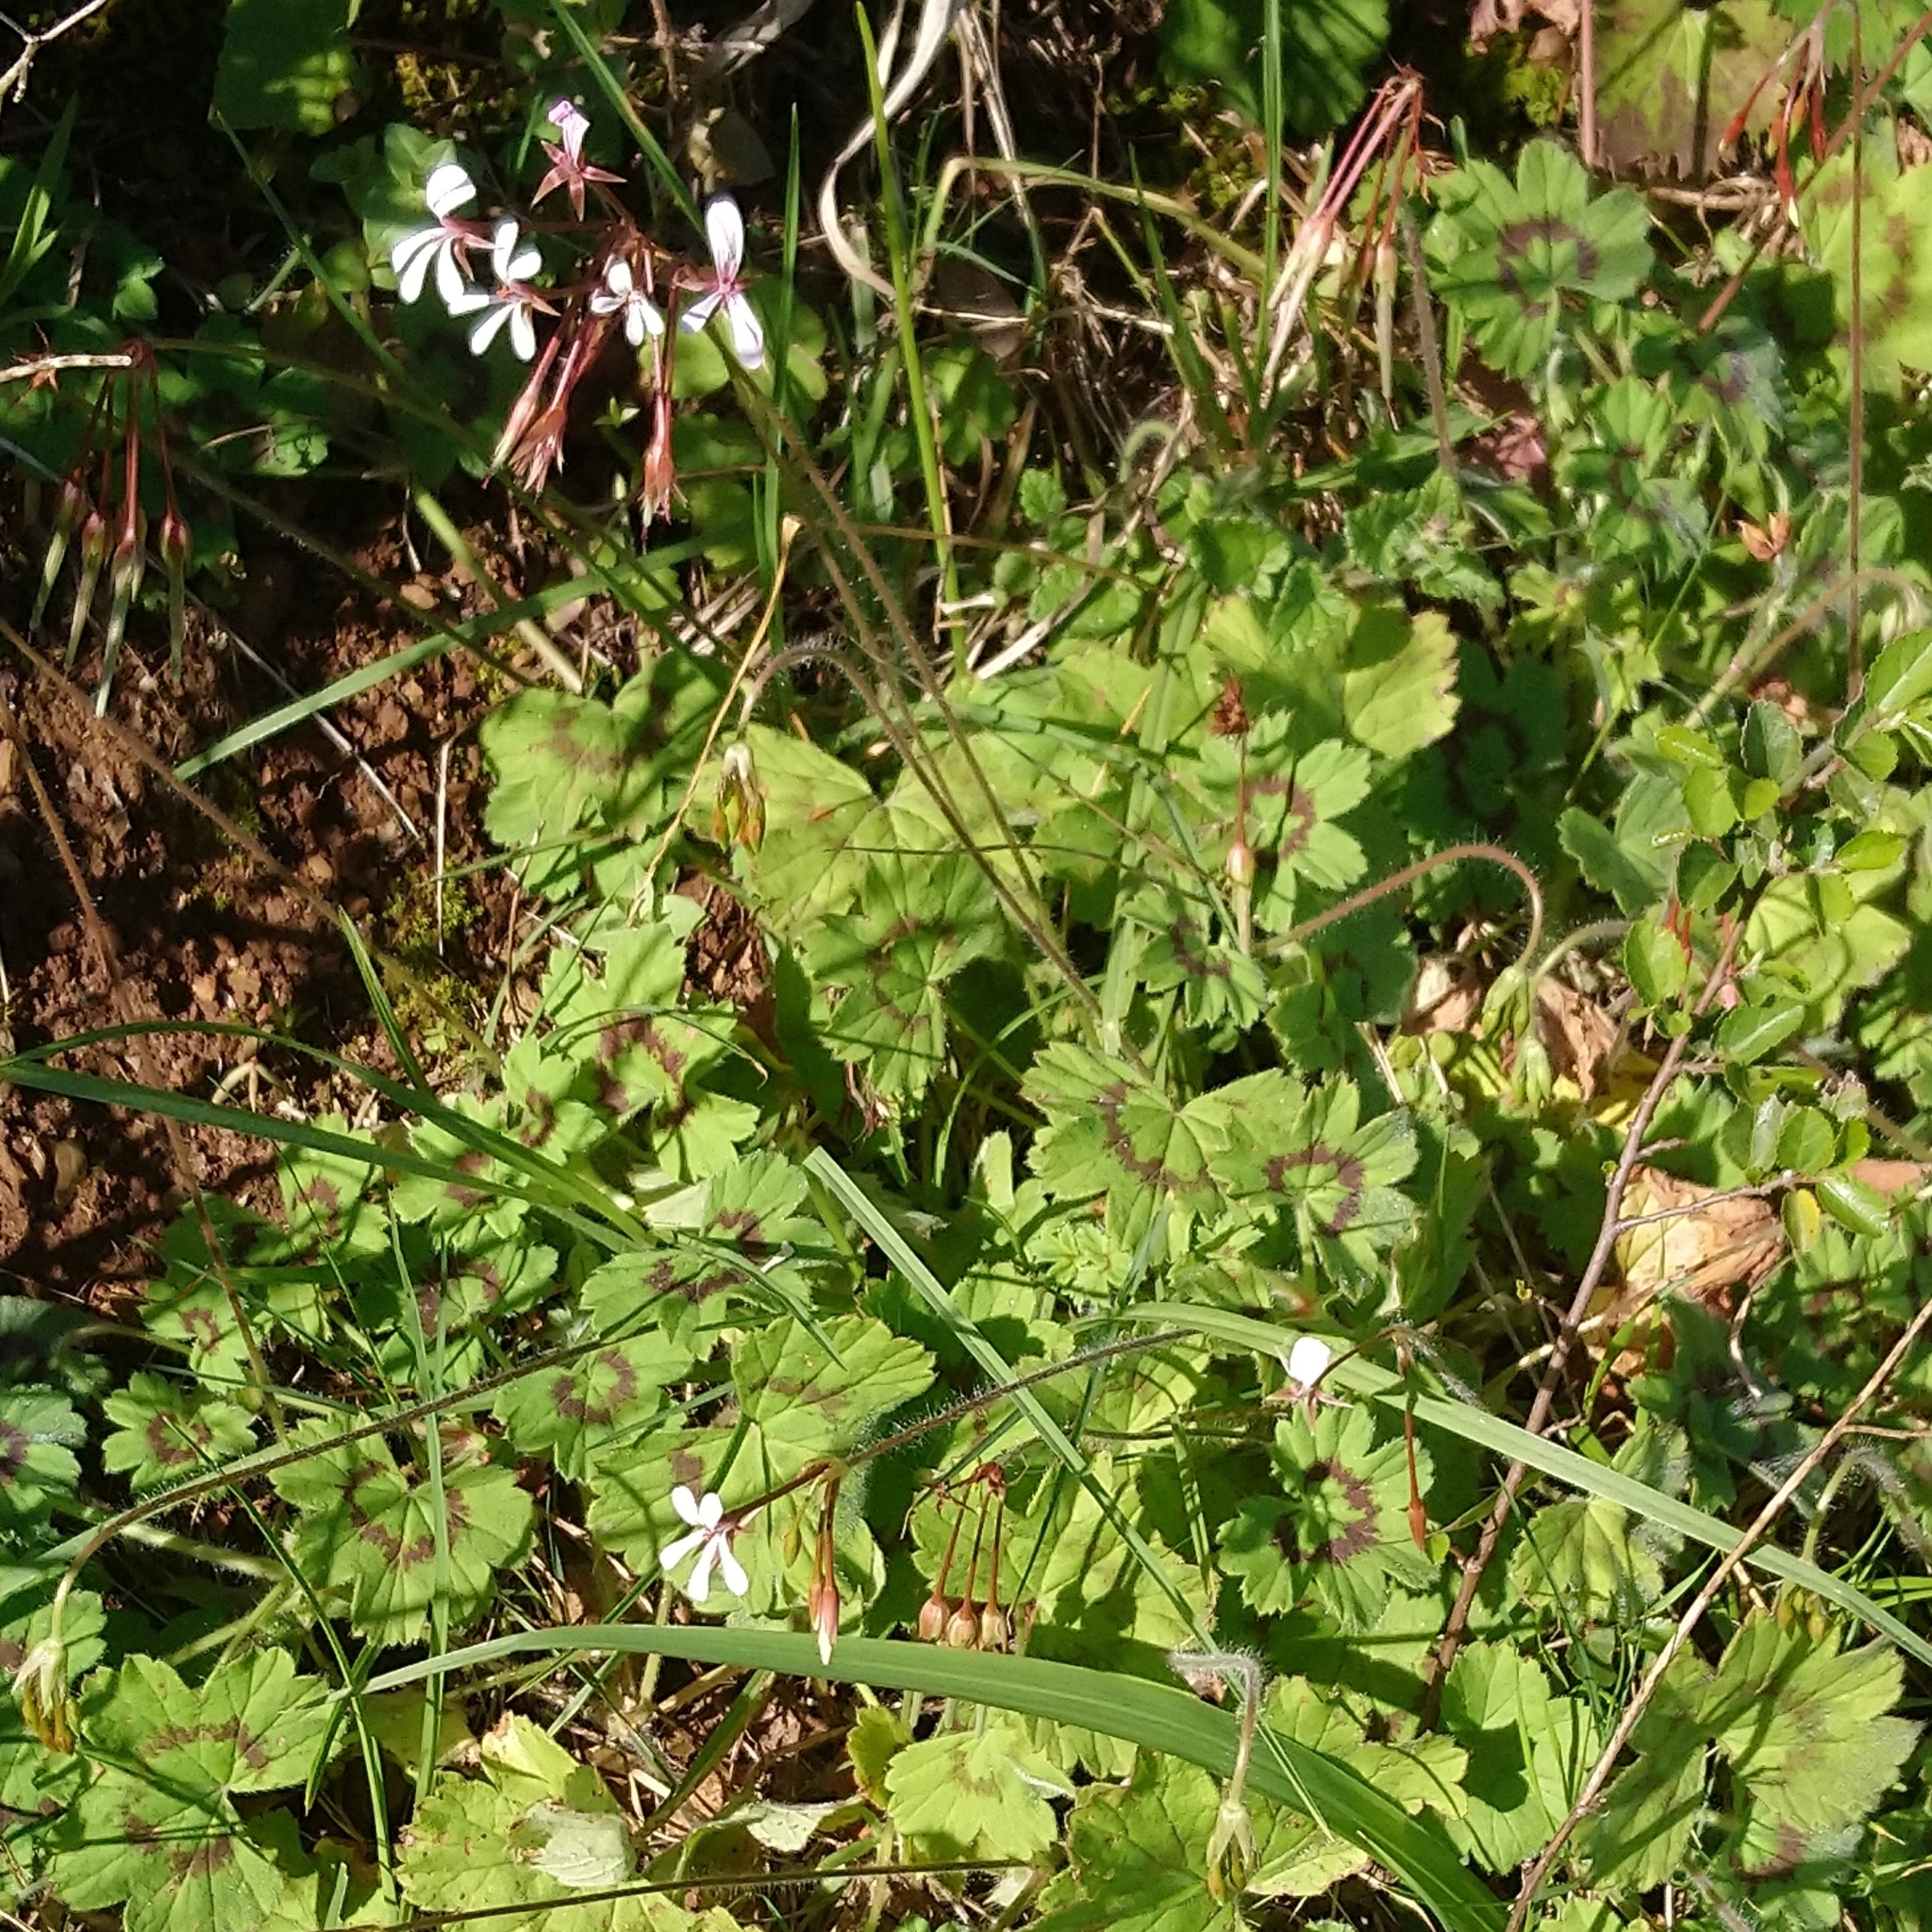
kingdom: Plantae
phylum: Tracheophyta
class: Magnoliopsida
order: Geraniales
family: Geraniaceae
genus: Pelargonium
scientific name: Pelargonium alchemilloides
